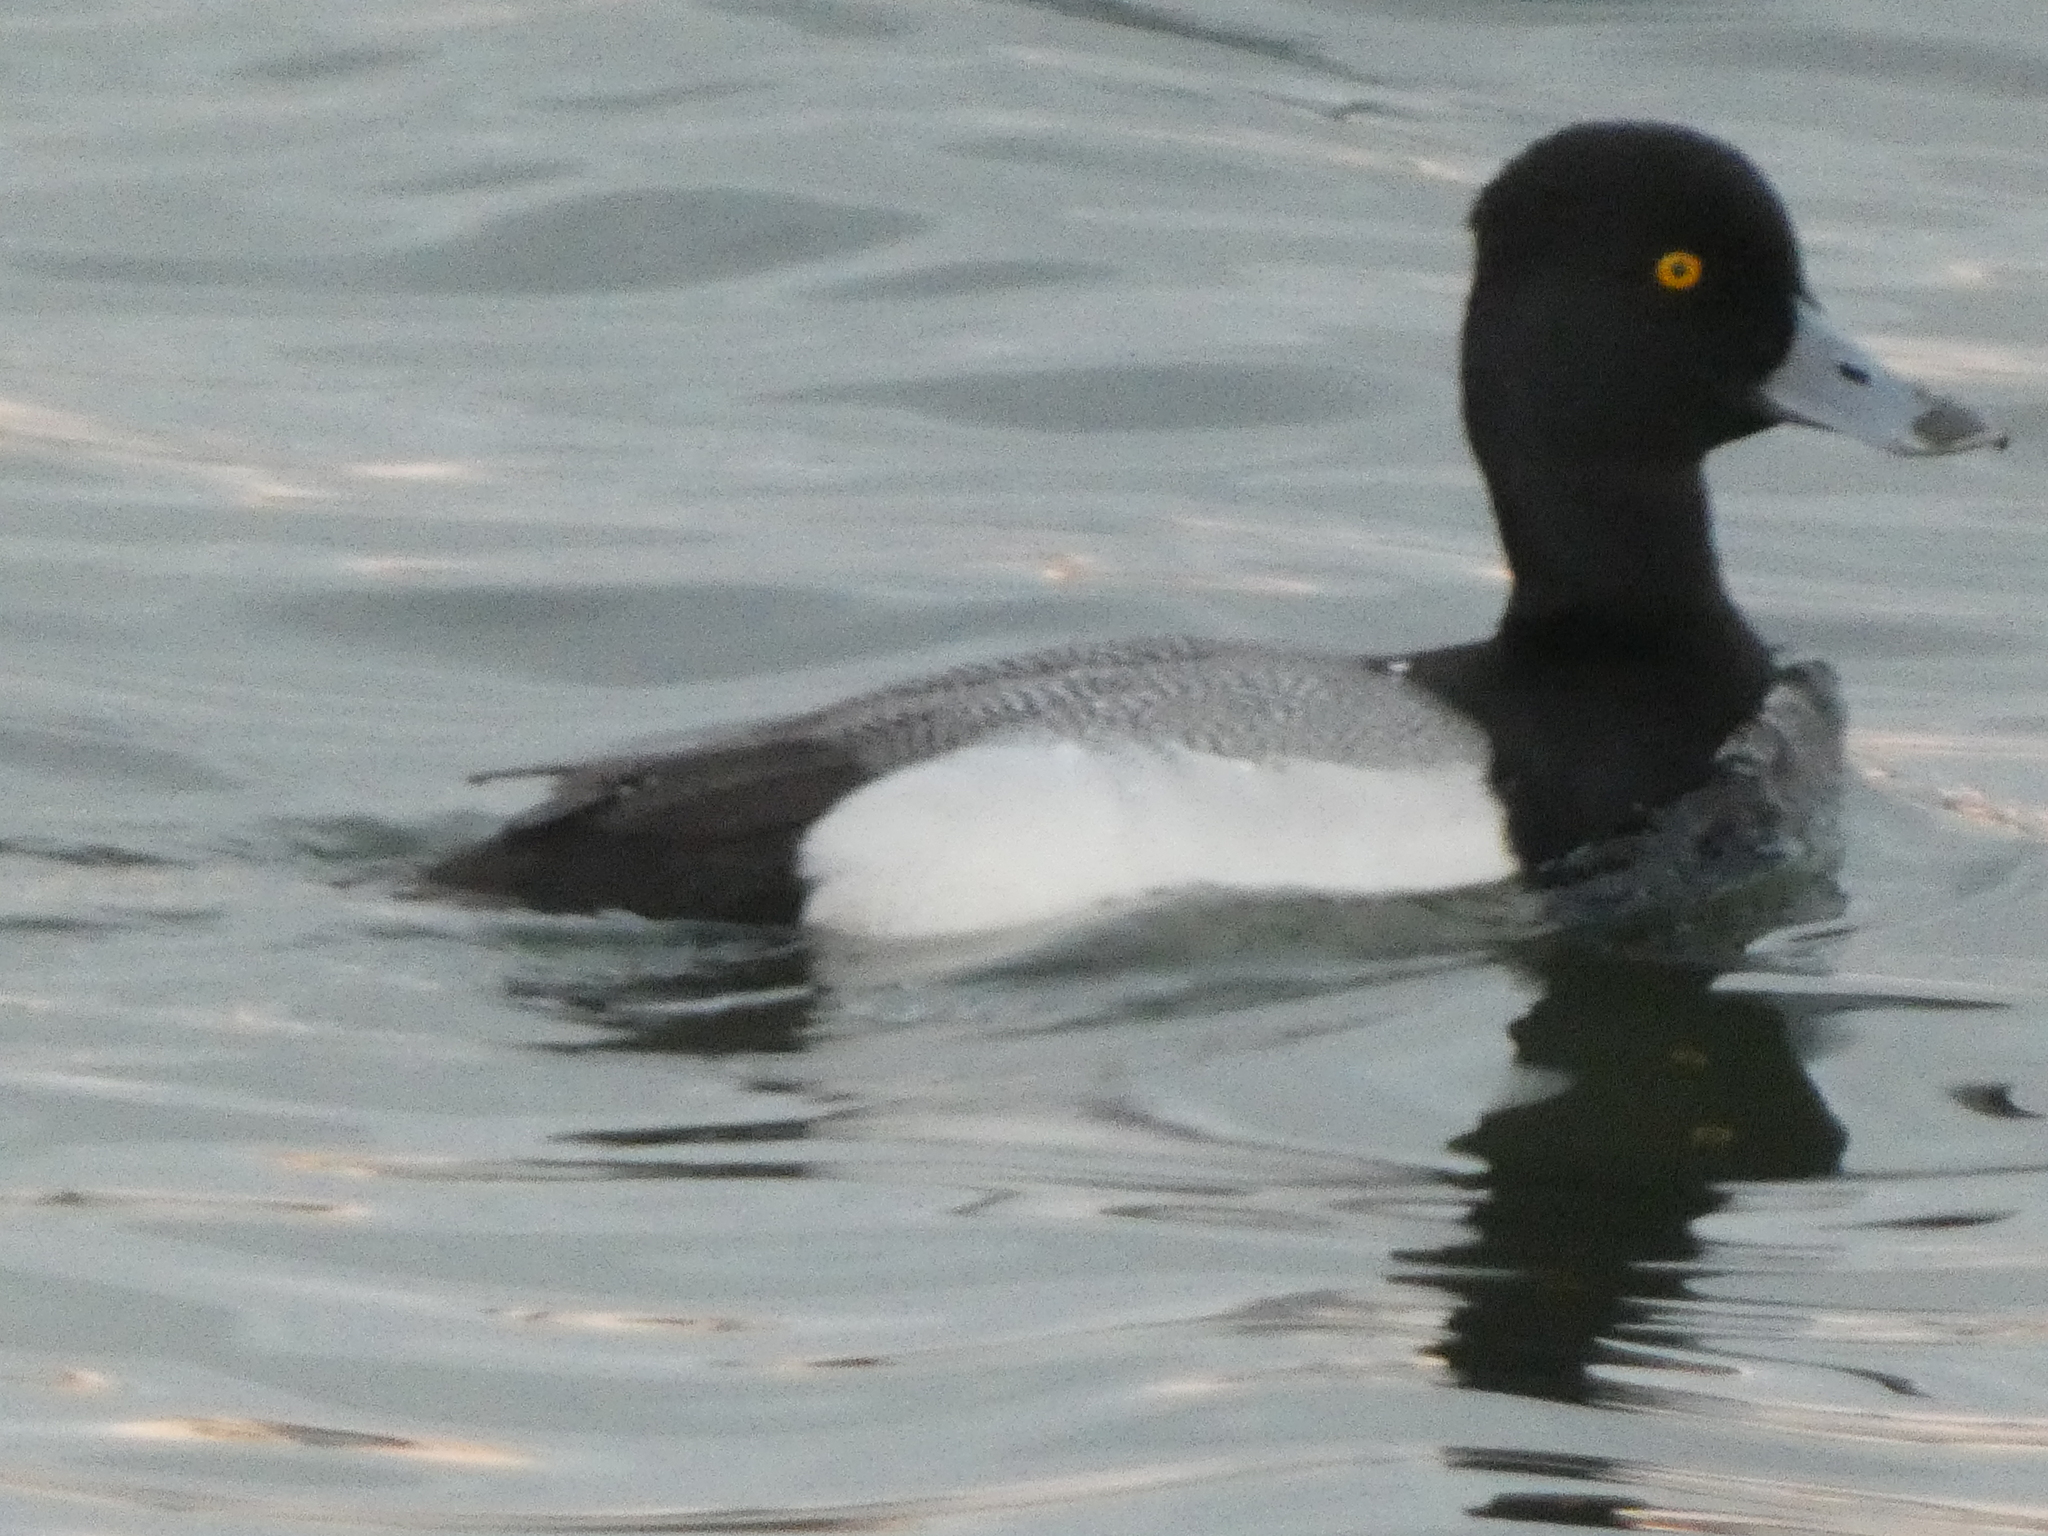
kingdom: Animalia
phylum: Chordata
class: Aves
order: Anseriformes
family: Anatidae
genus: Aythya
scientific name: Aythya affinis
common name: Lesser scaup
